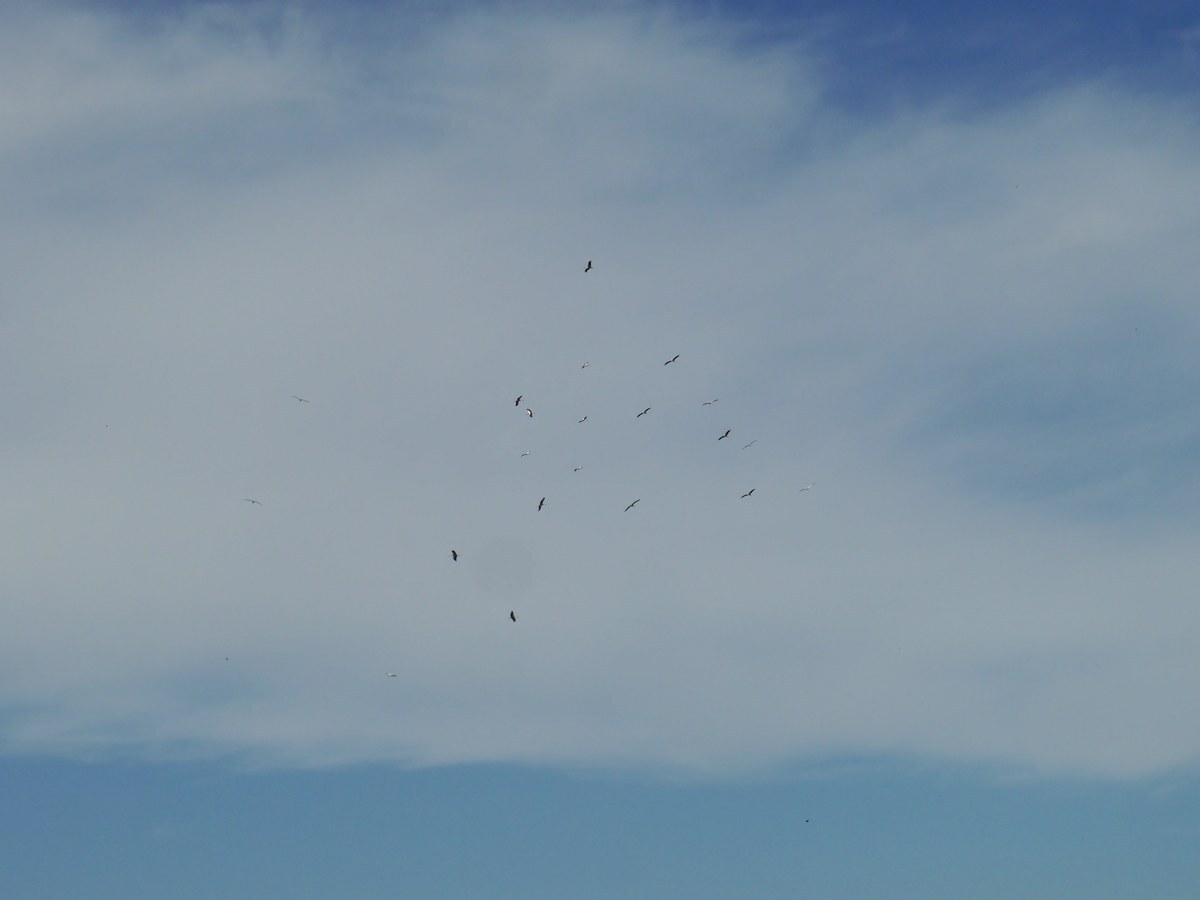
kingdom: Animalia
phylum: Chordata
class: Aves
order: Ciconiiformes
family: Ciconiidae
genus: Ciconia
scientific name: Ciconia ciconia
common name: White stork
